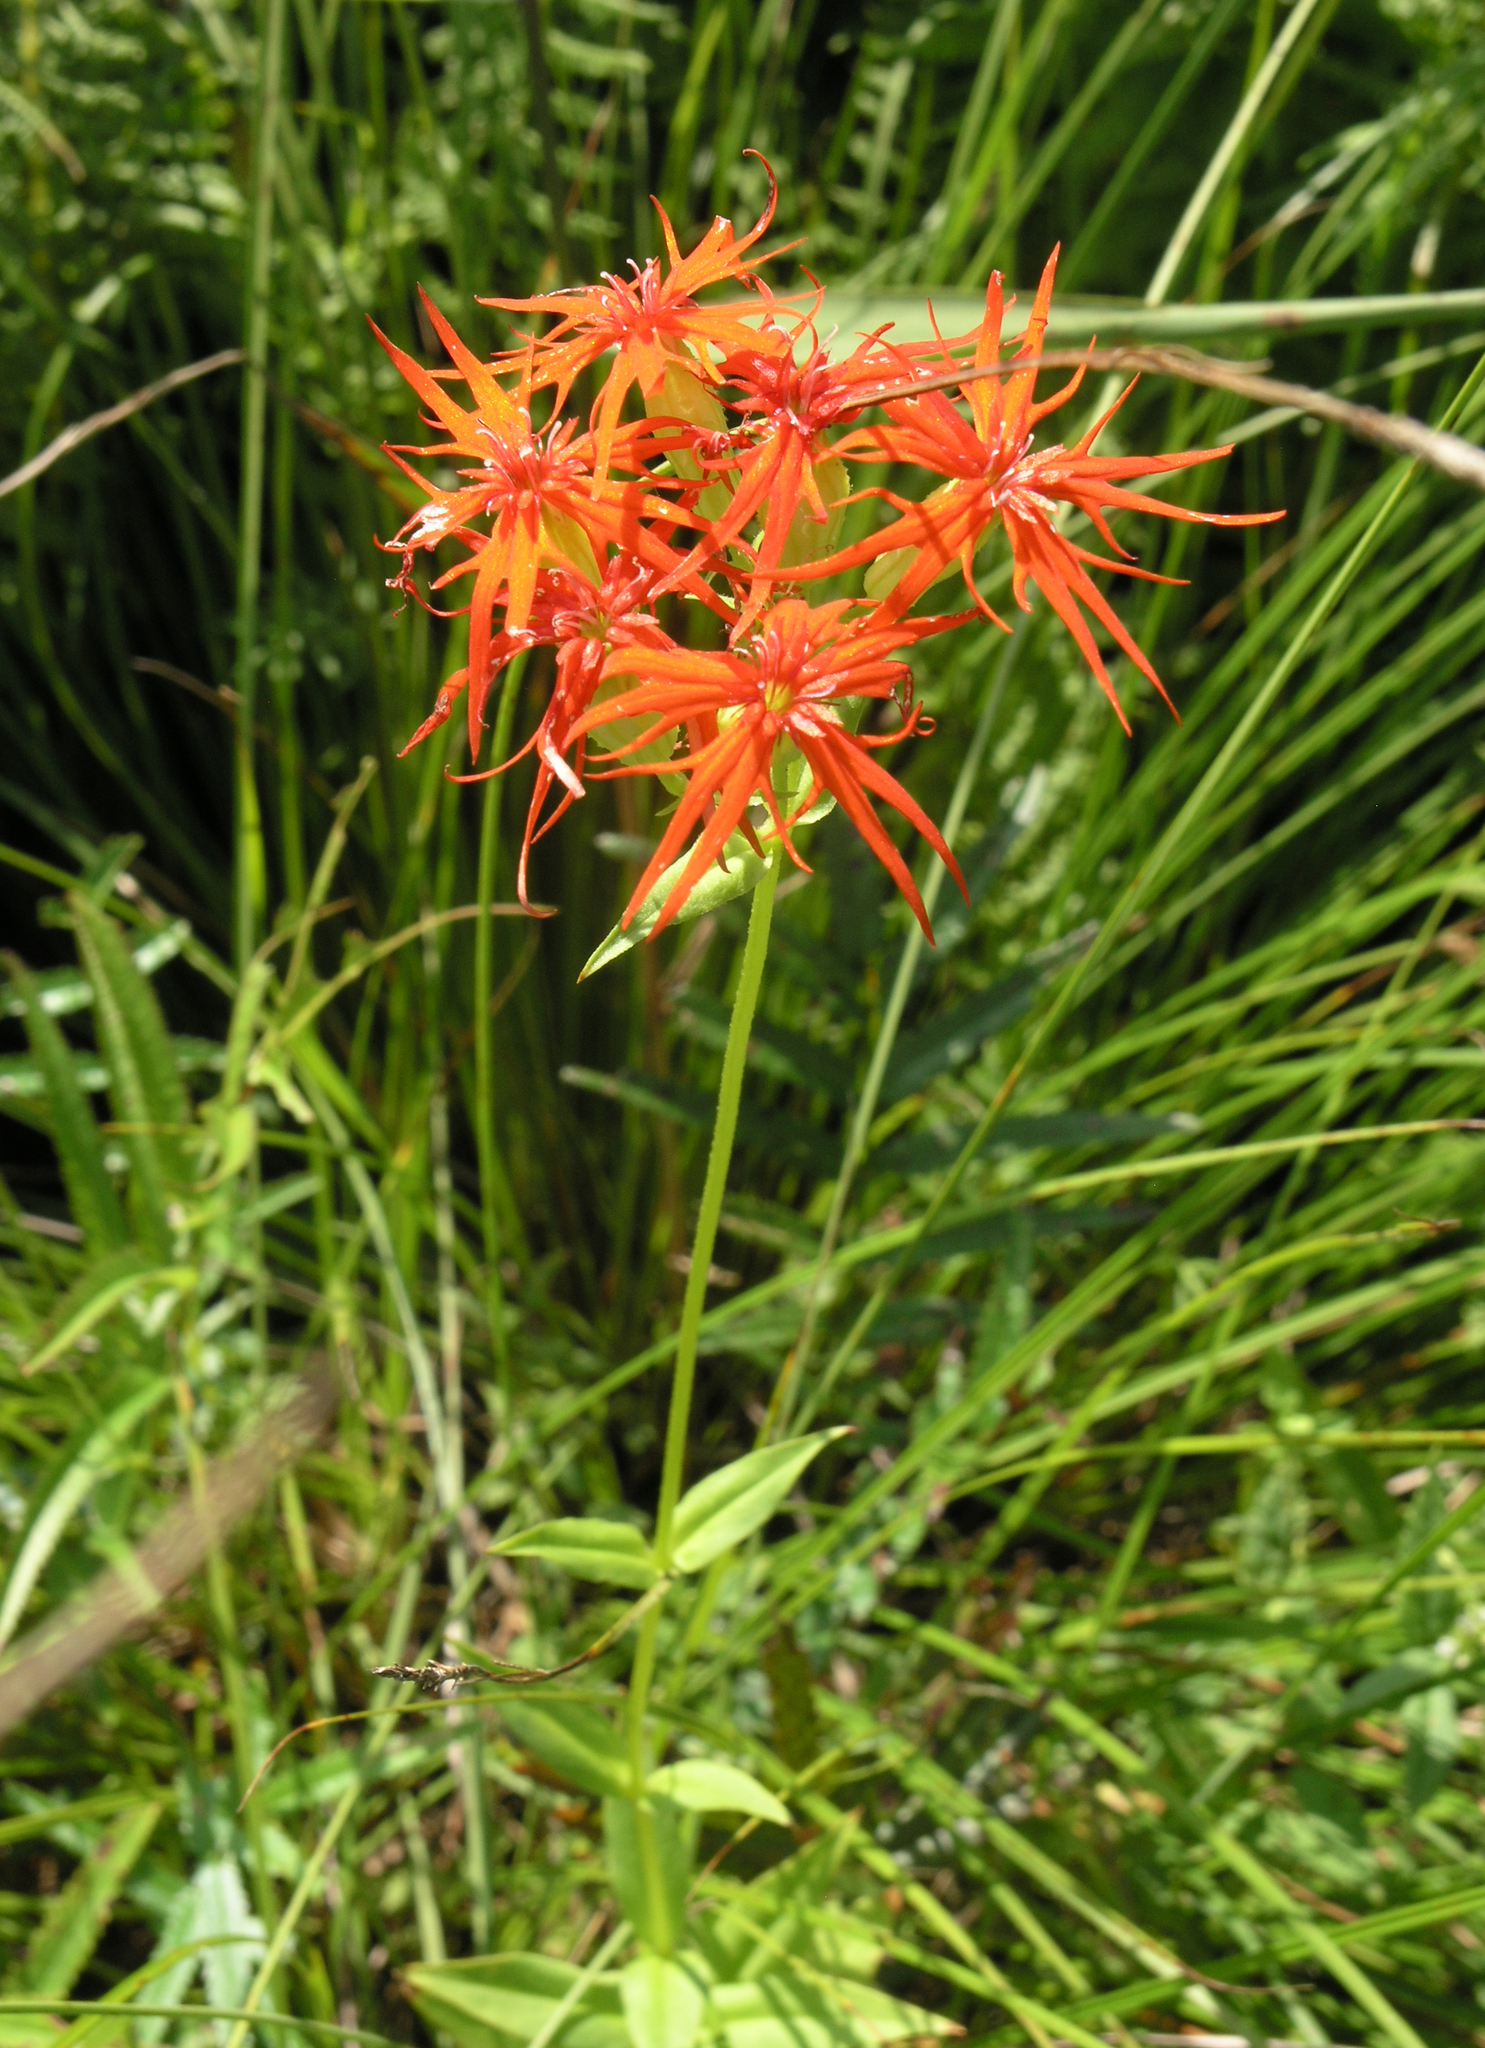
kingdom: Plantae
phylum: Tracheophyta
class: Magnoliopsida
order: Caryophyllales
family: Caryophyllaceae
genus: Silene
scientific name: Silene wilfordii
